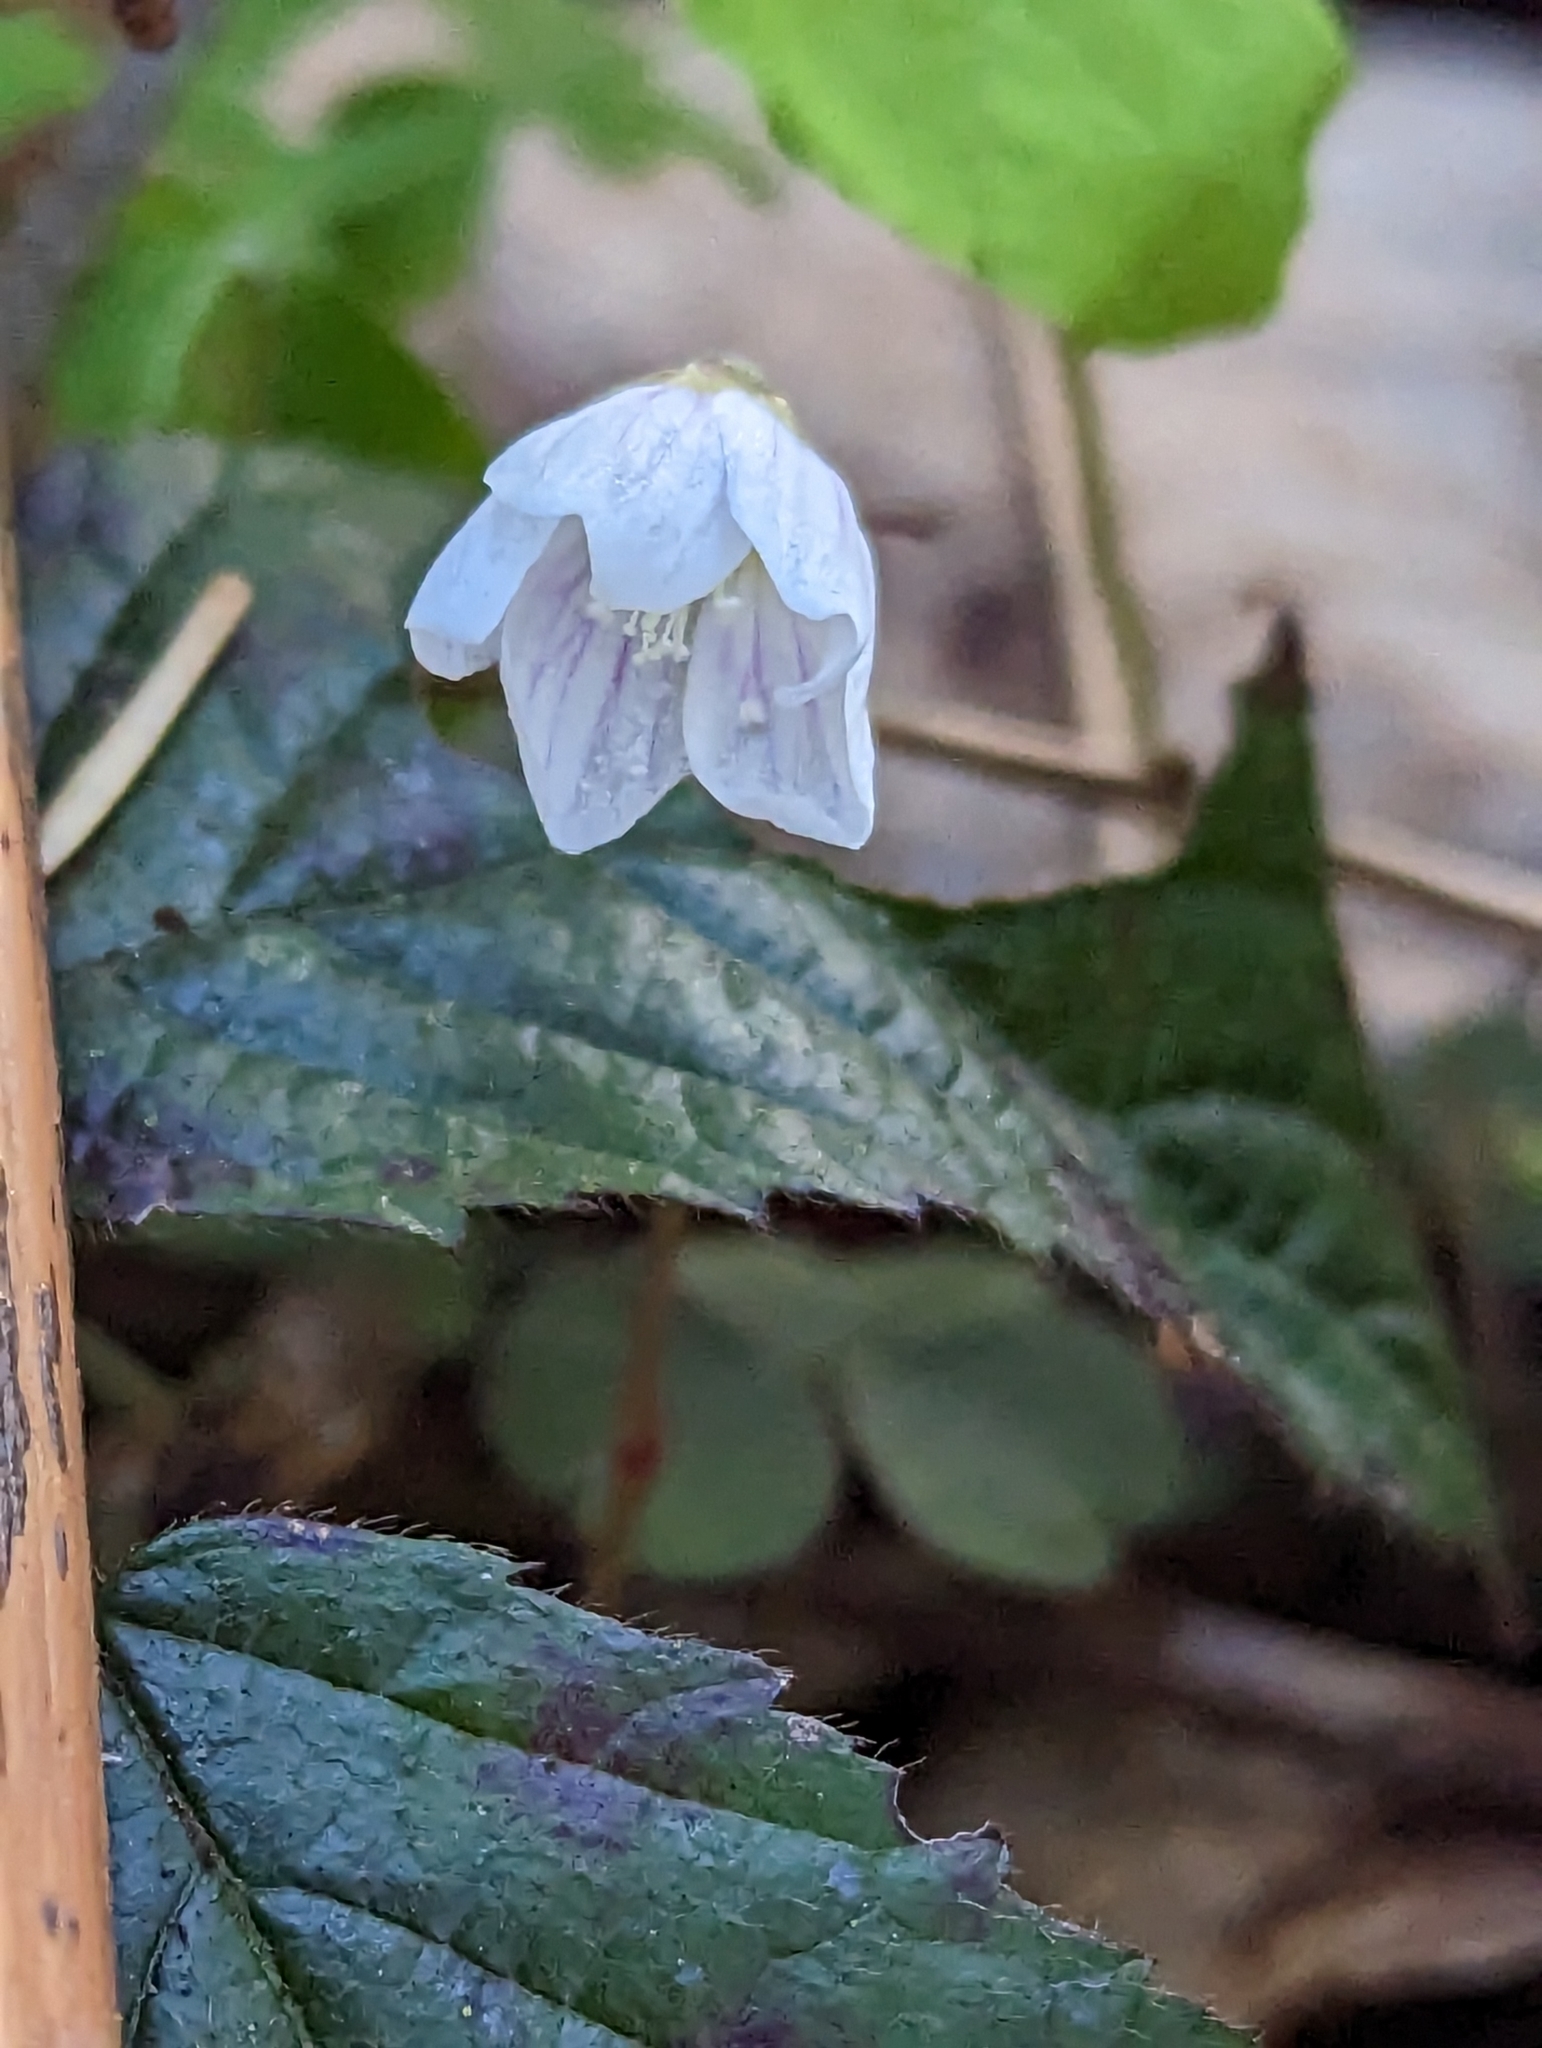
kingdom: Plantae
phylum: Tracheophyta
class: Magnoliopsida
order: Oxalidales
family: Oxalidaceae
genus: Oxalis
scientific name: Oxalis acetosella
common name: Wood-sorrel
